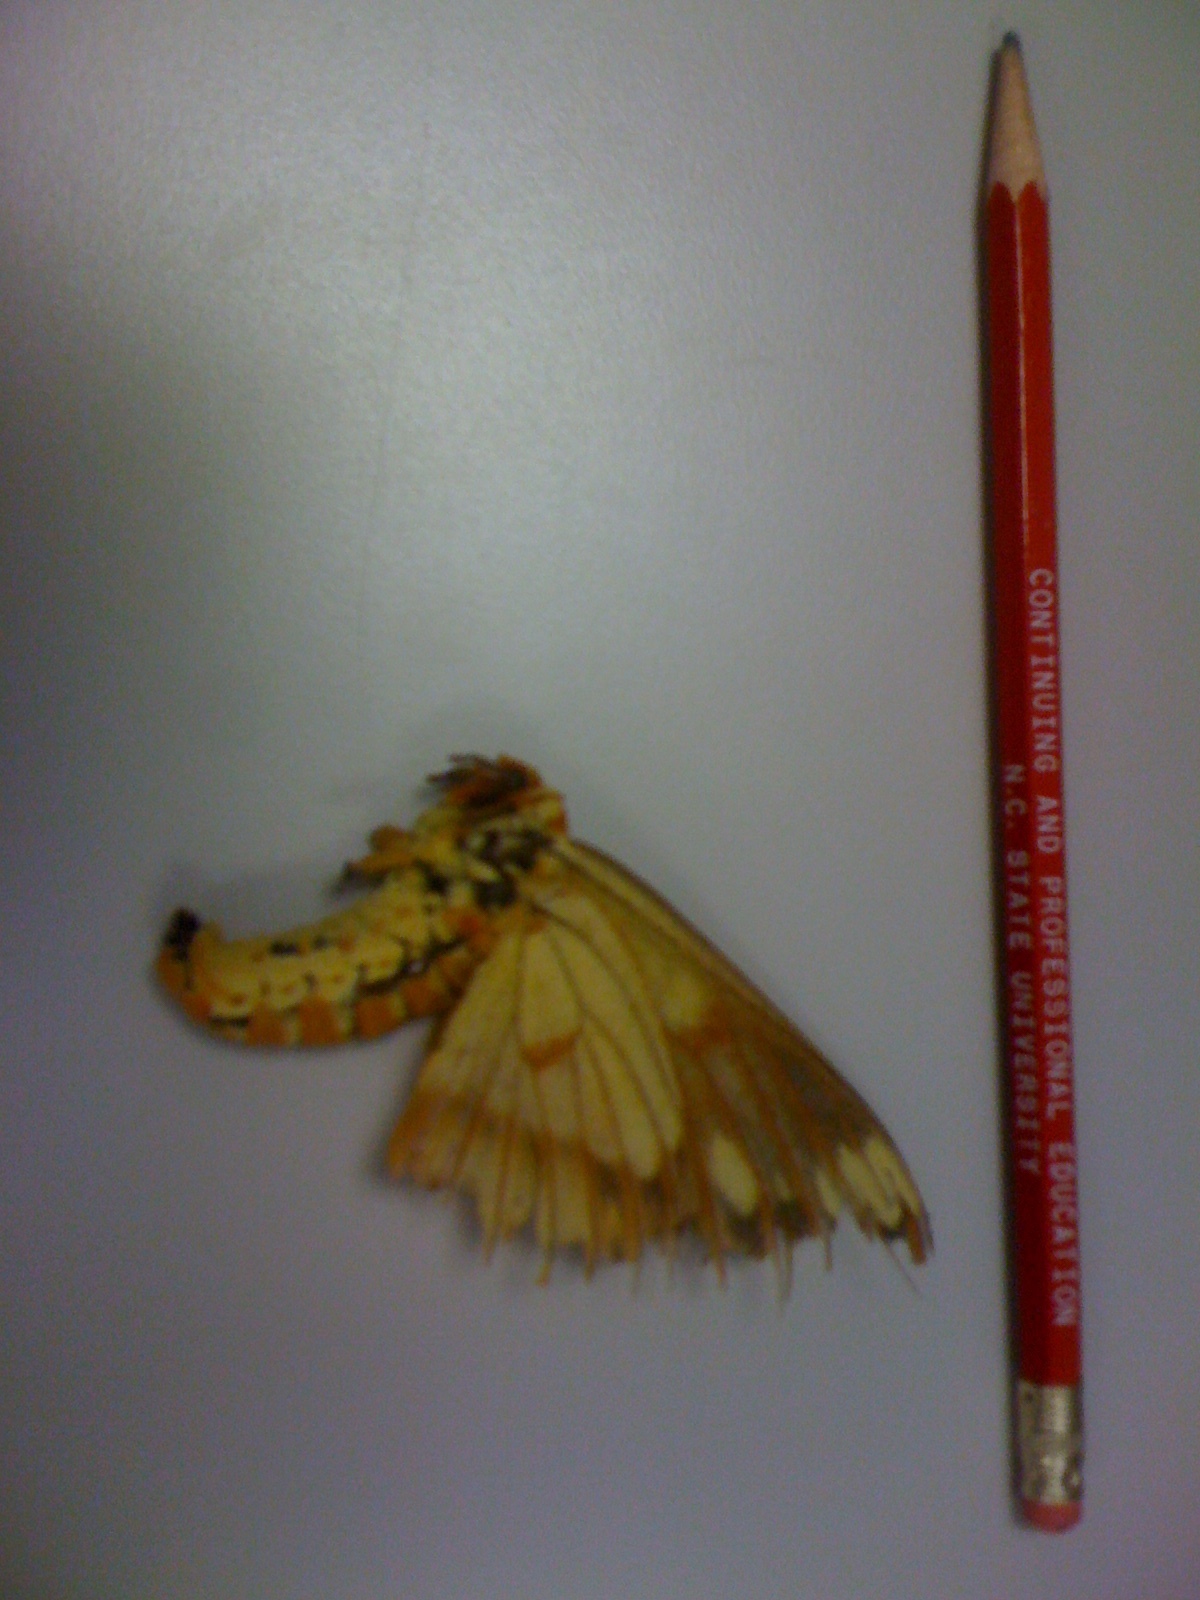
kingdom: Animalia
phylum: Arthropoda
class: Insecta
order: Lepidoptera
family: Saturniidae
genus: Citheronia
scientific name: Citheronia regalis
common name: Hickory horned devil
